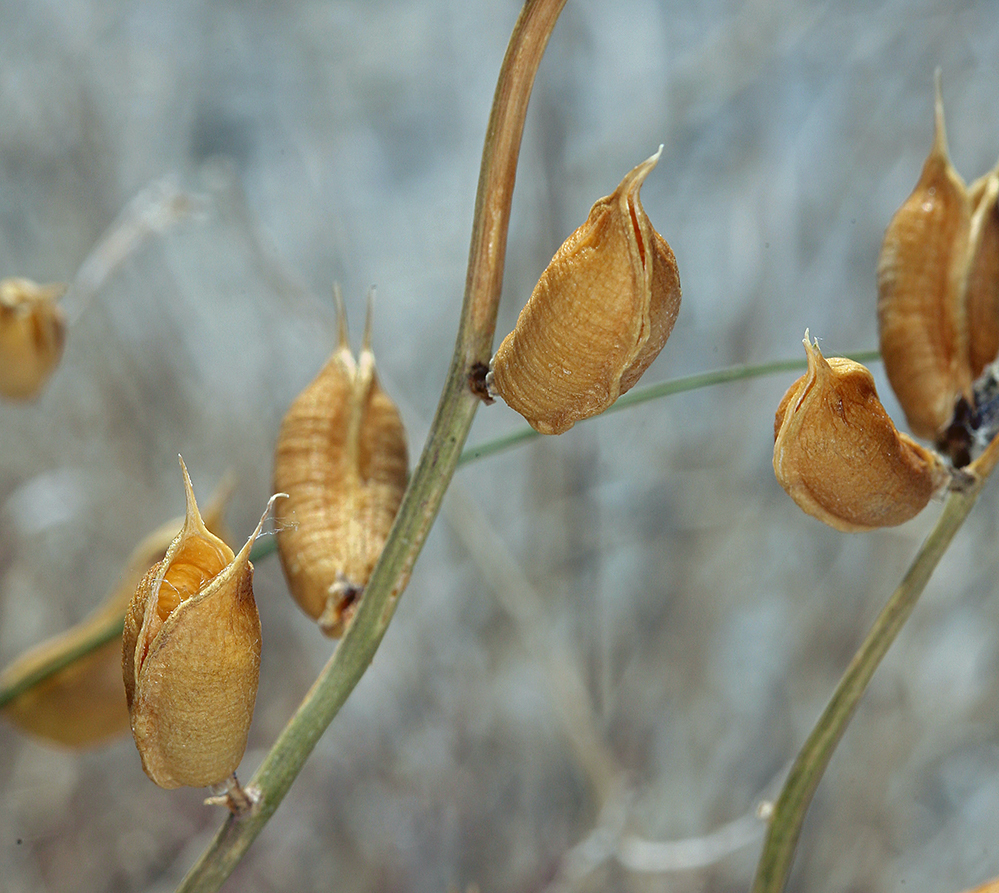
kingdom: Plantae
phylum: Tracheophyta
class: Magnoliopsida
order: Fabales
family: Fabaceae
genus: Astragalus
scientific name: Astragalus serenoi
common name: Naked milk-vetch
